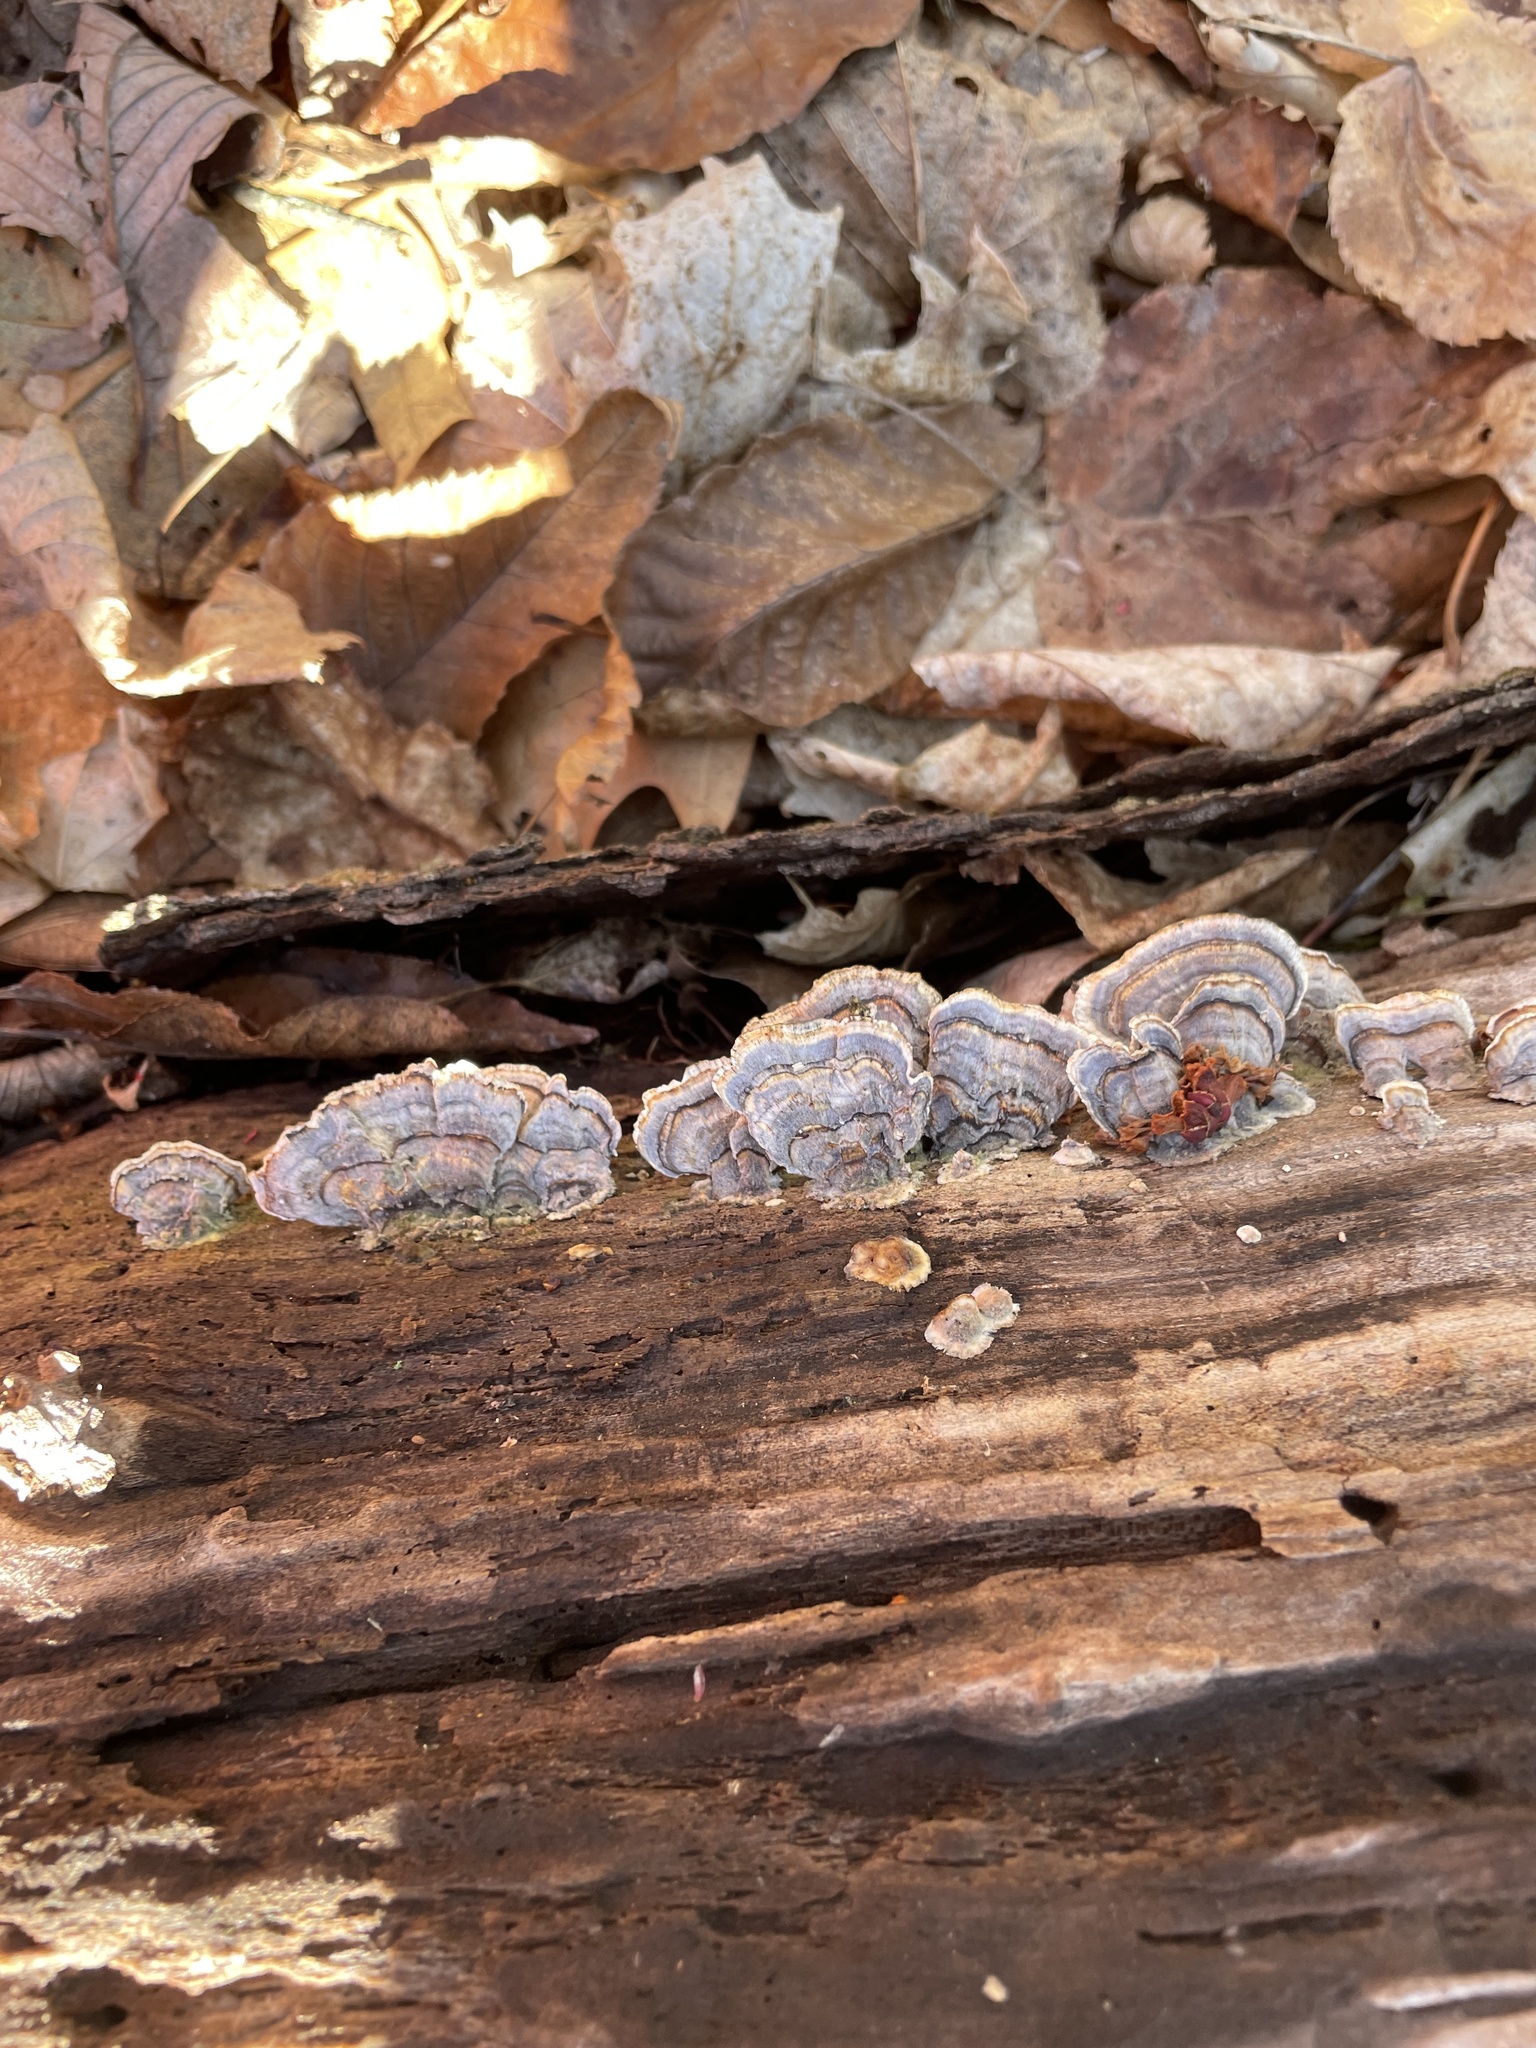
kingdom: Fungi
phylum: Basidiomycota
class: Agaricomycetes
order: Polyporales
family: Polyporaceae
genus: Trametes
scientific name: Trametes versicolor
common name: Turkeytail
